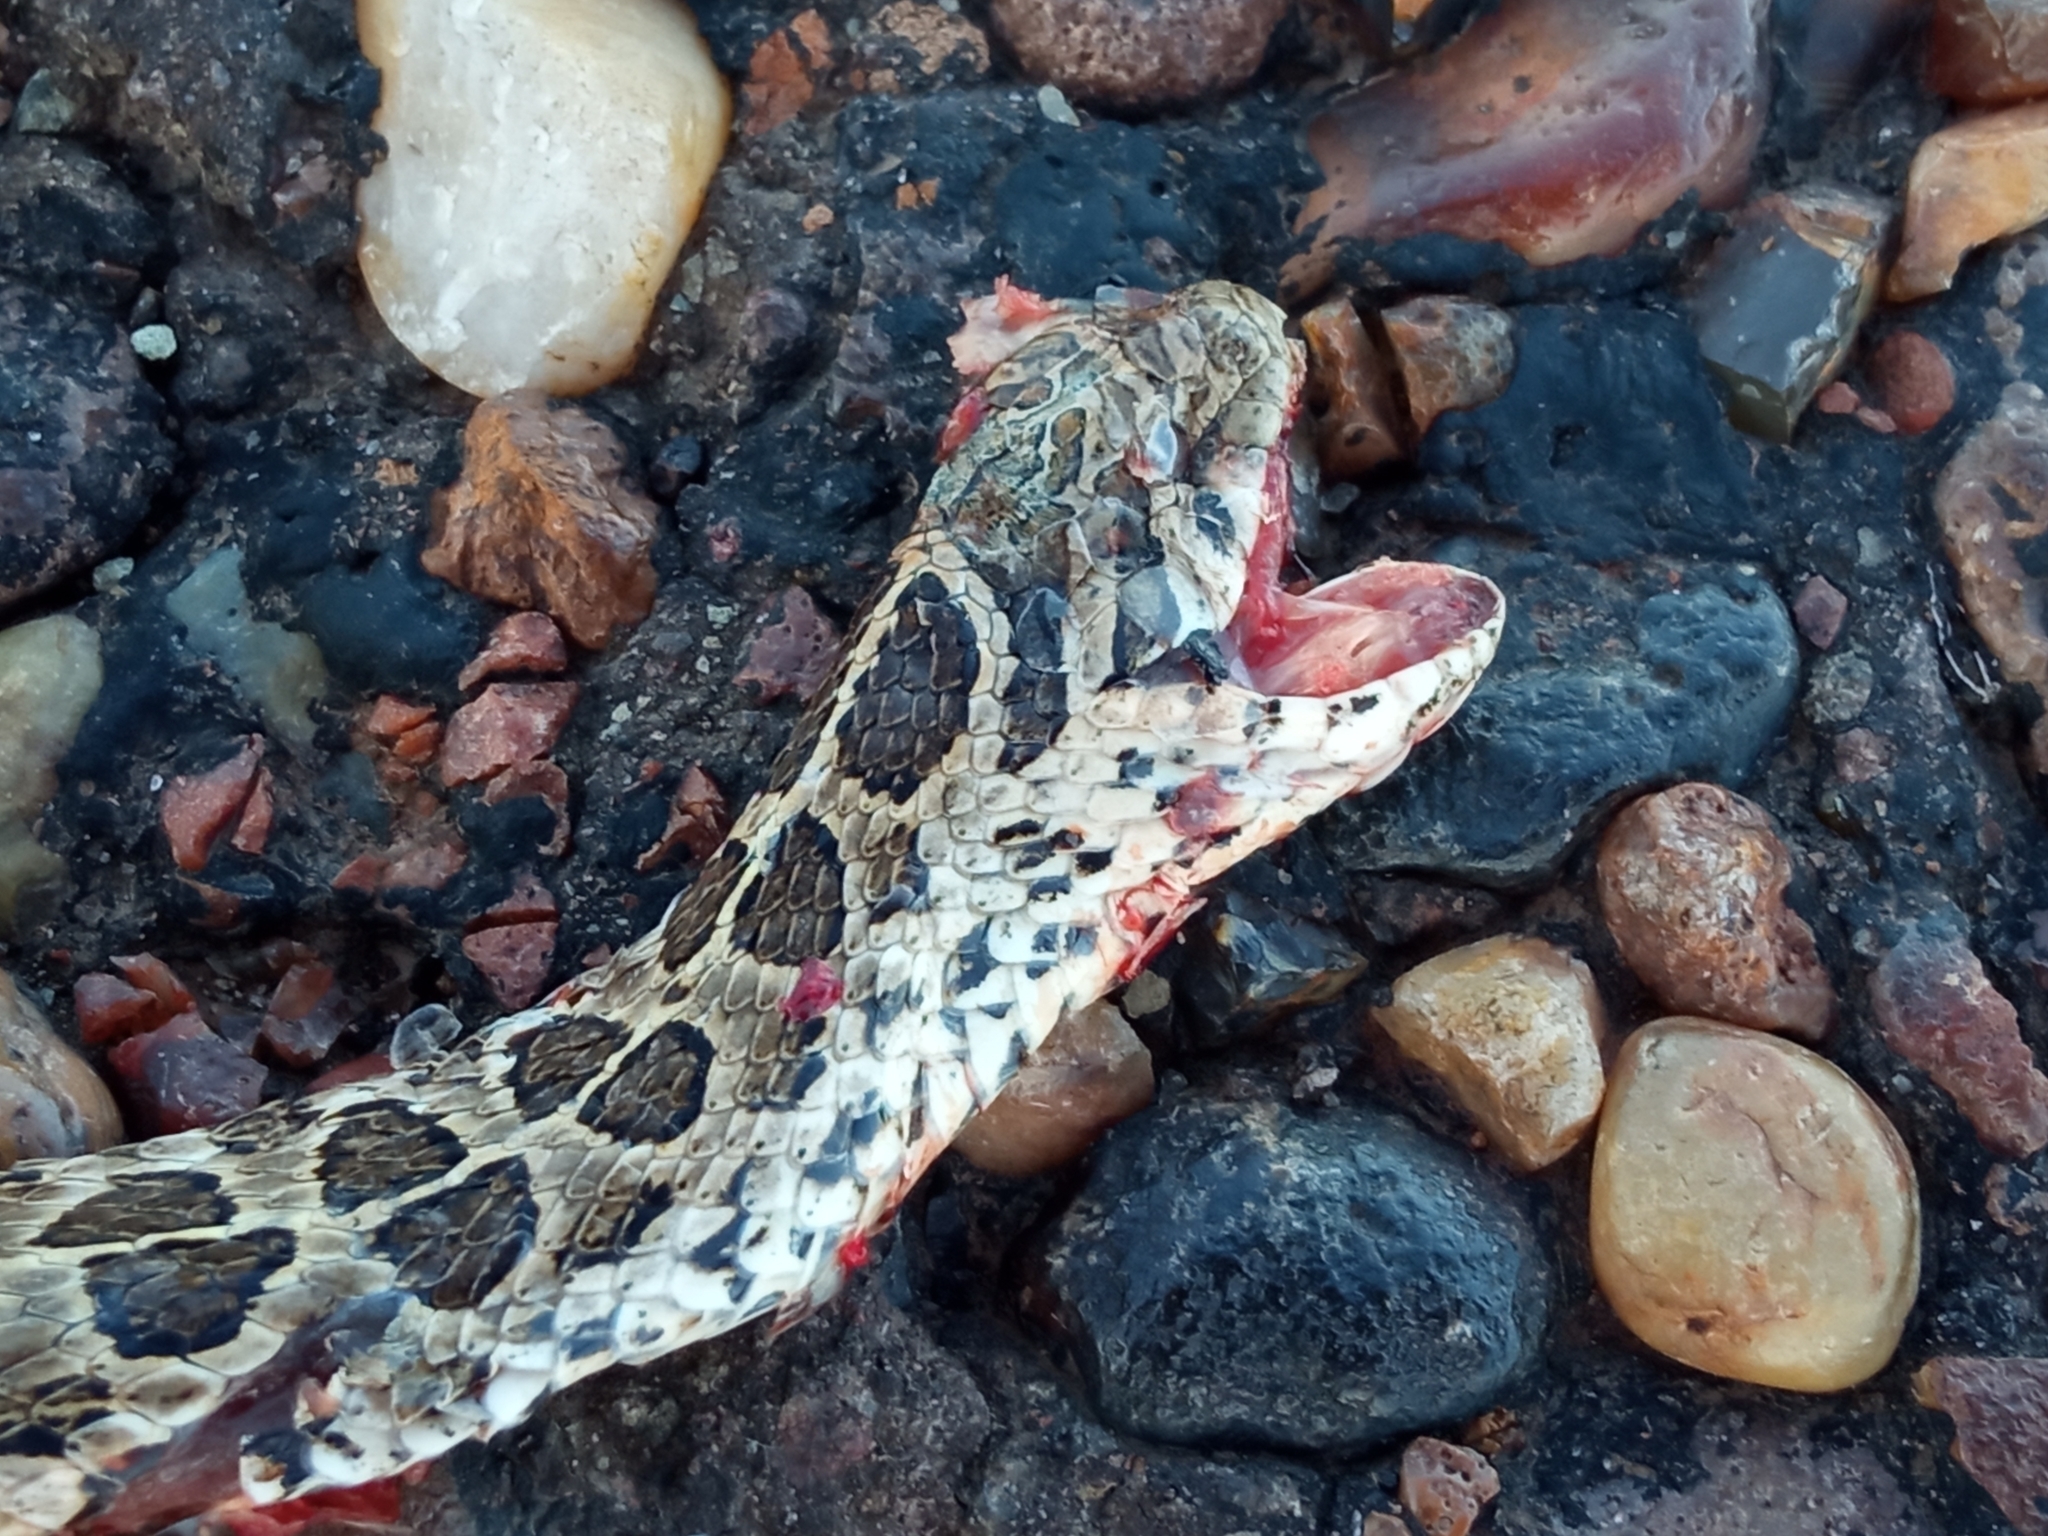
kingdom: Animalia
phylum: Chordata
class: Squamata
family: Colubridae
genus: Tachymenis
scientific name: Tachymenis
